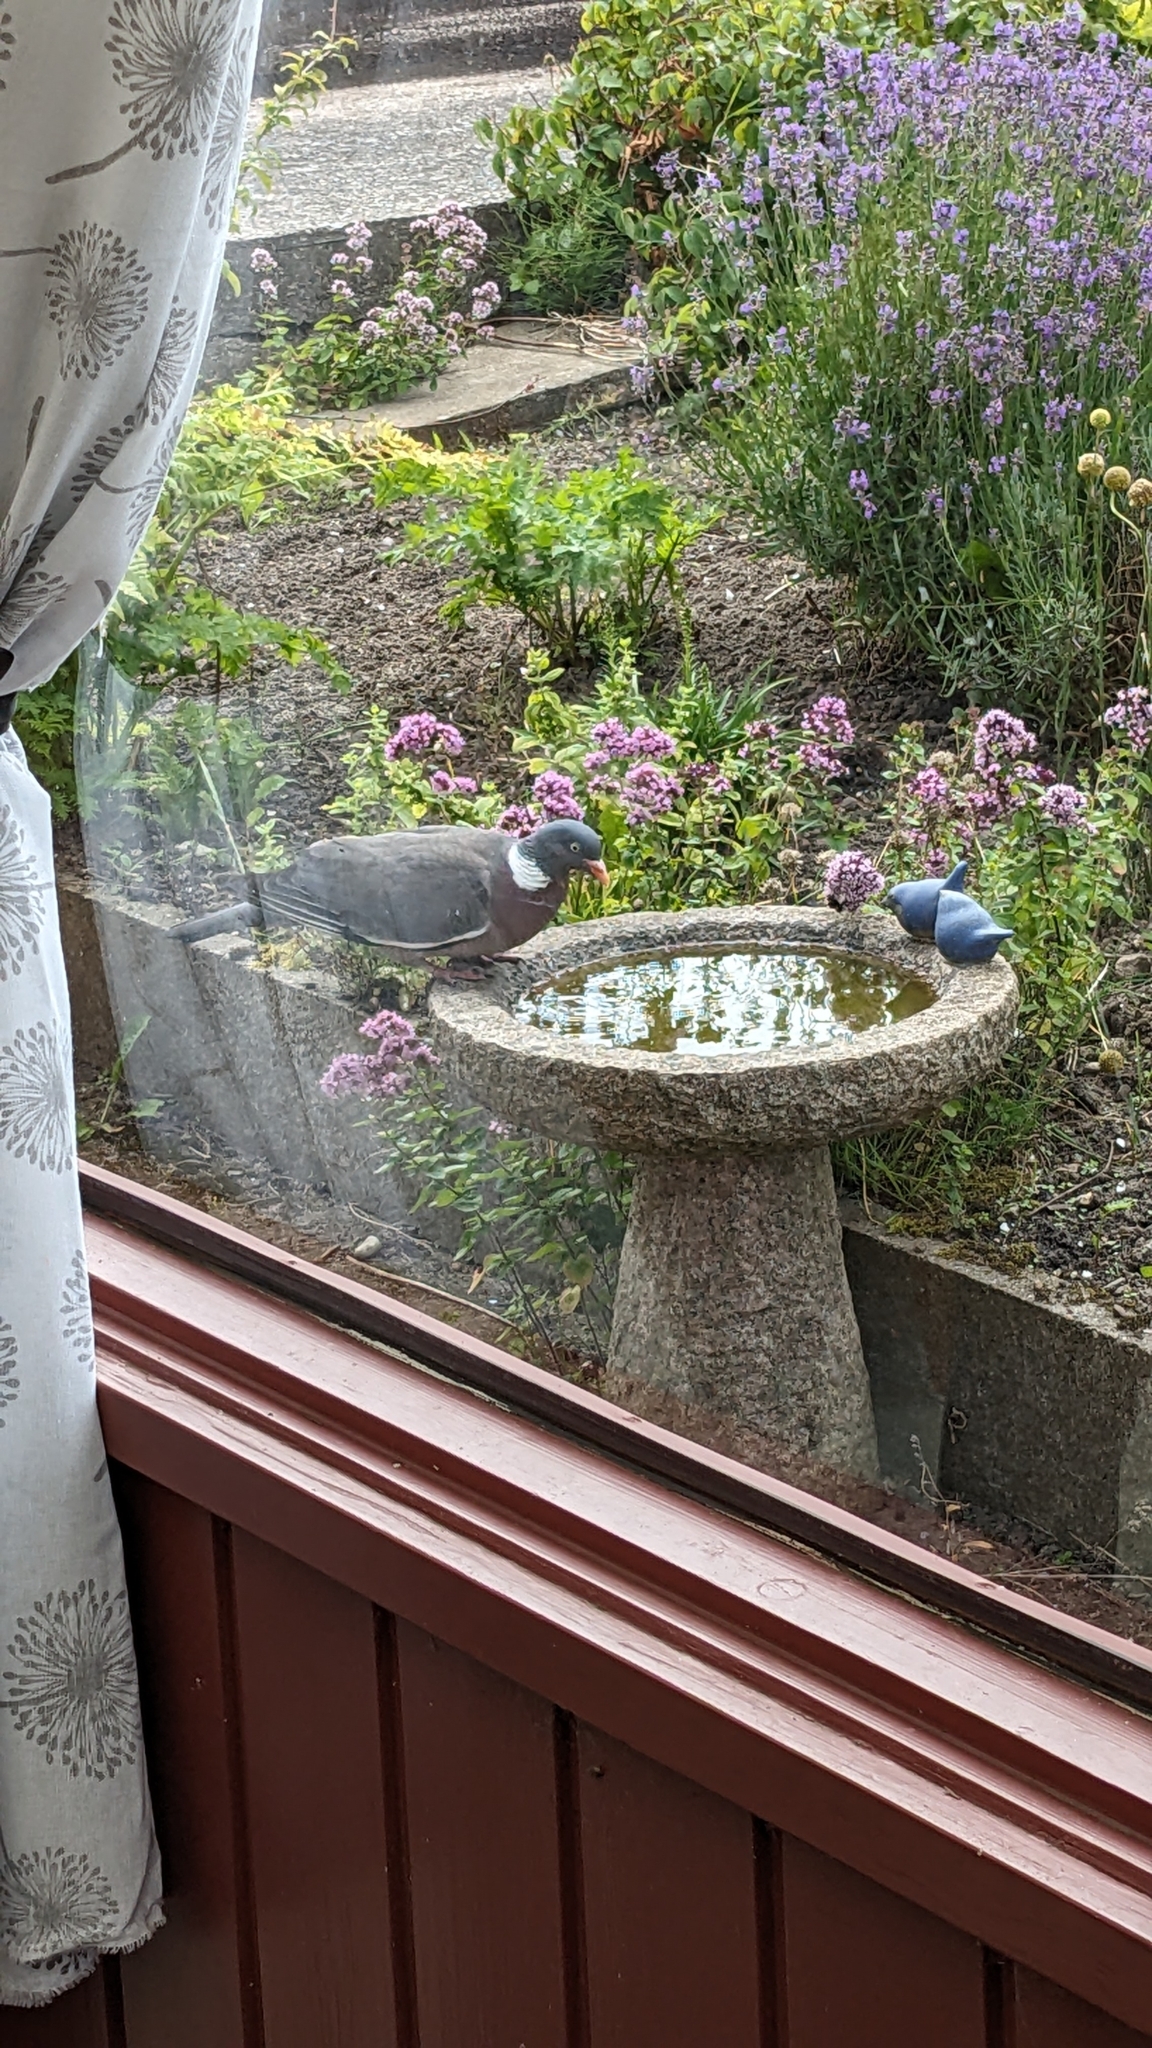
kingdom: Animalia
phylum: Chordata
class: Aves
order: Columbiformes
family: Columbidae
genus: Columba
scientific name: Columba palumbus
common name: Common wood pigeon
